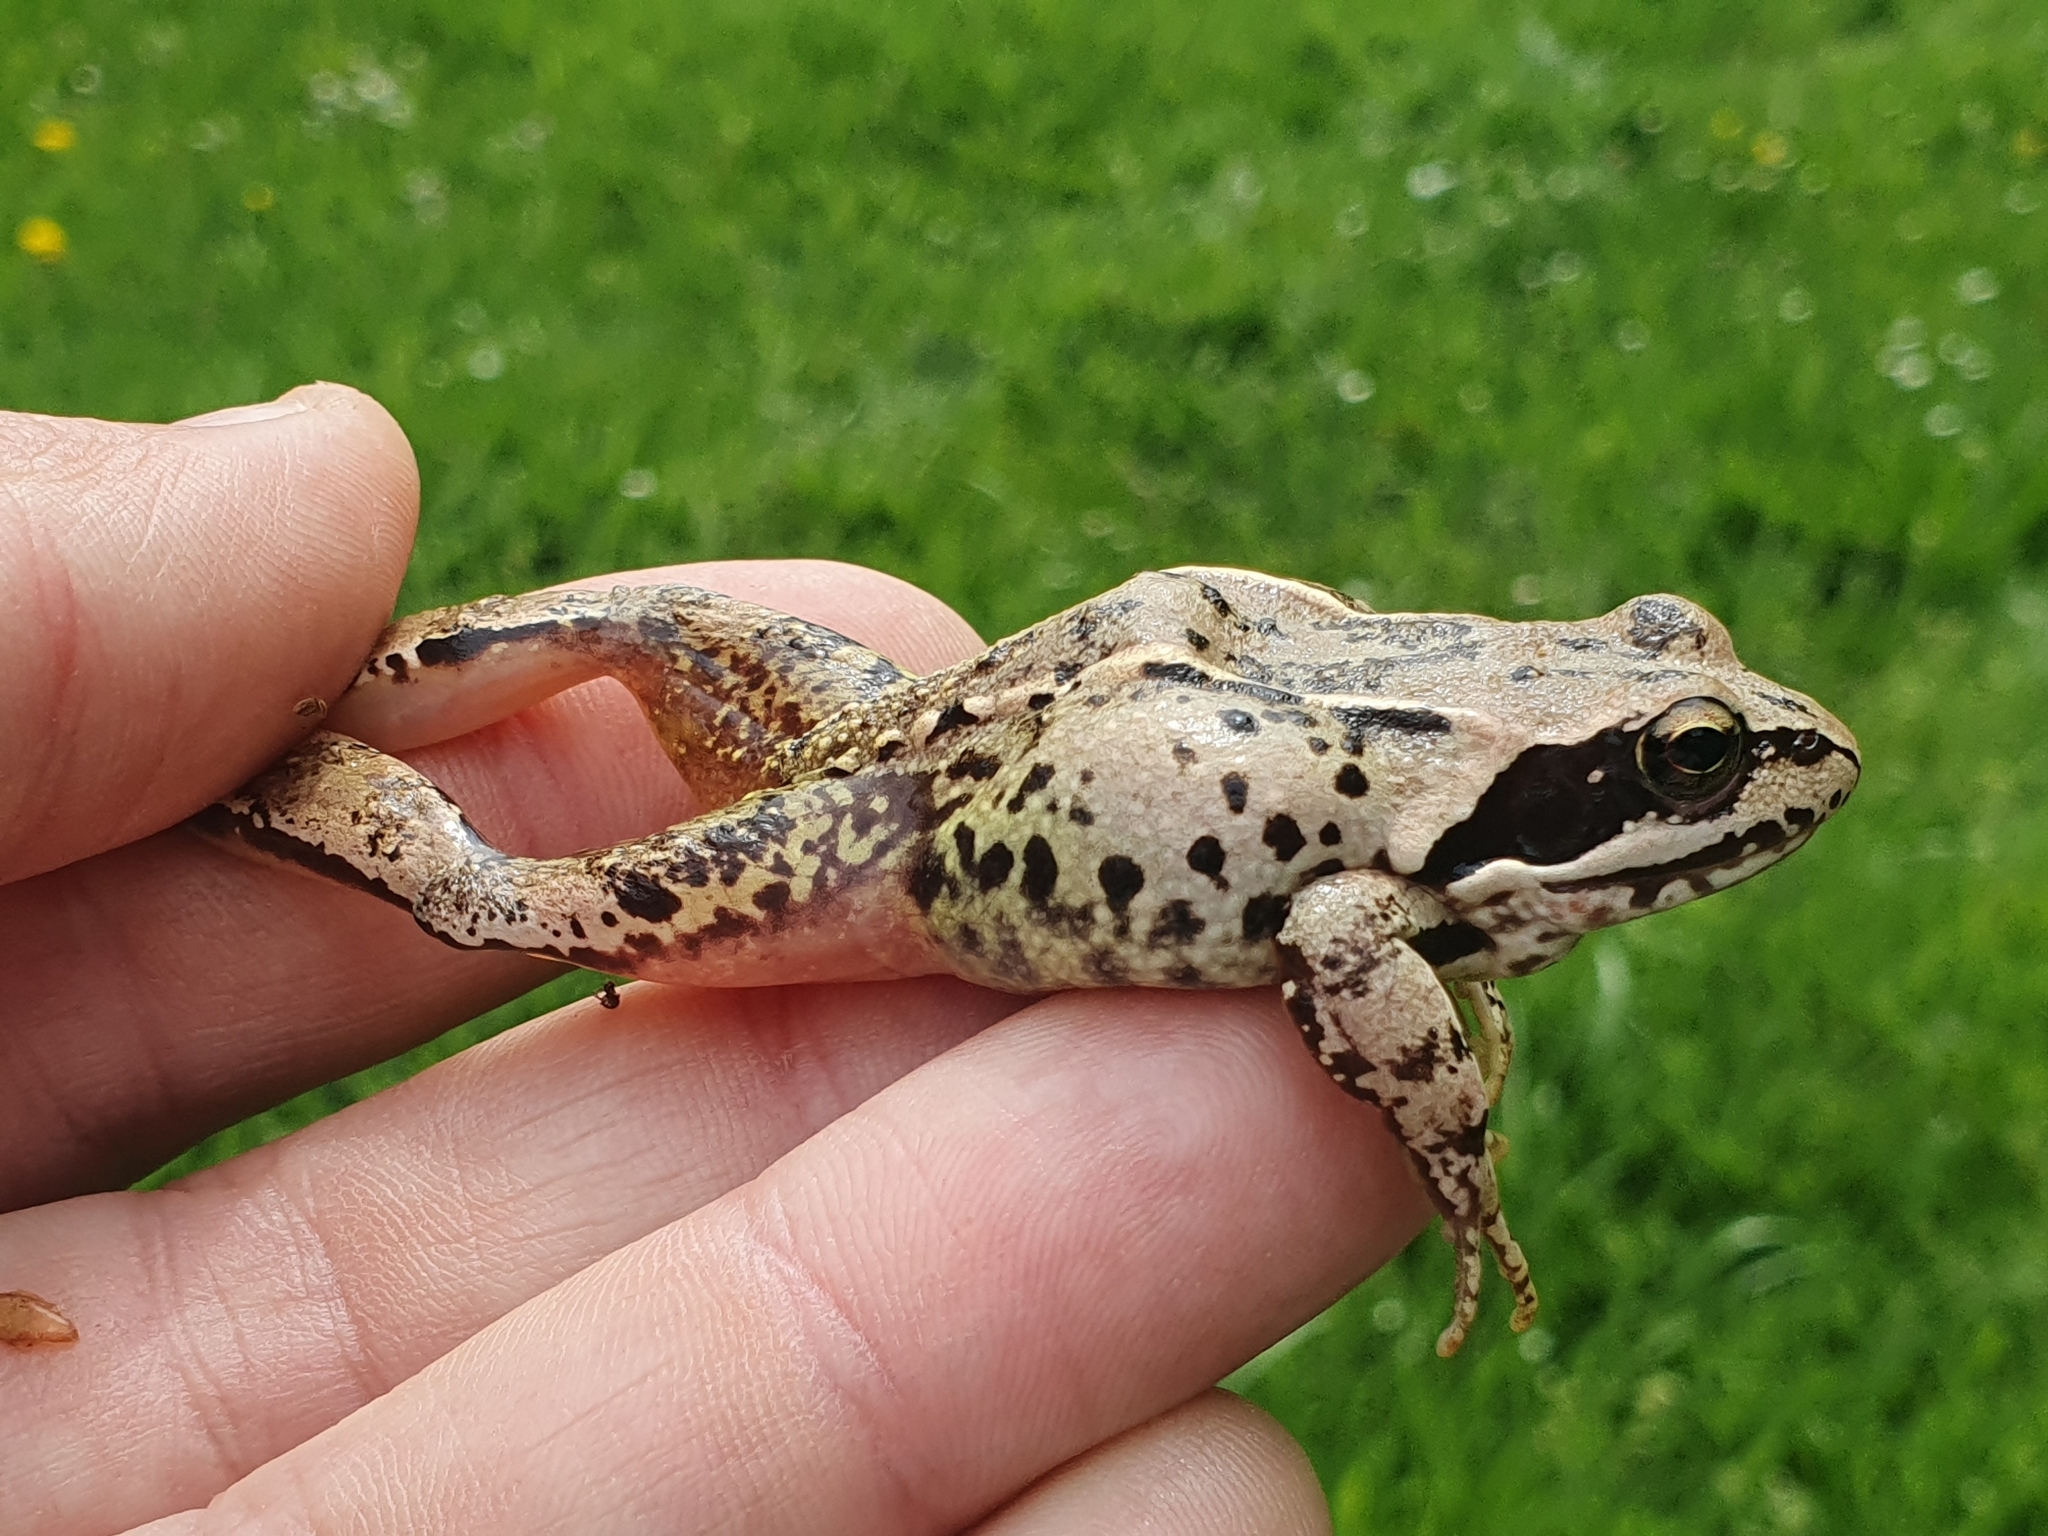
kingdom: Animalia
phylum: Chordata
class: Amphibia
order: Anura
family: Ranidae
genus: Rana
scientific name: Rana temporaria
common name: Common frog
